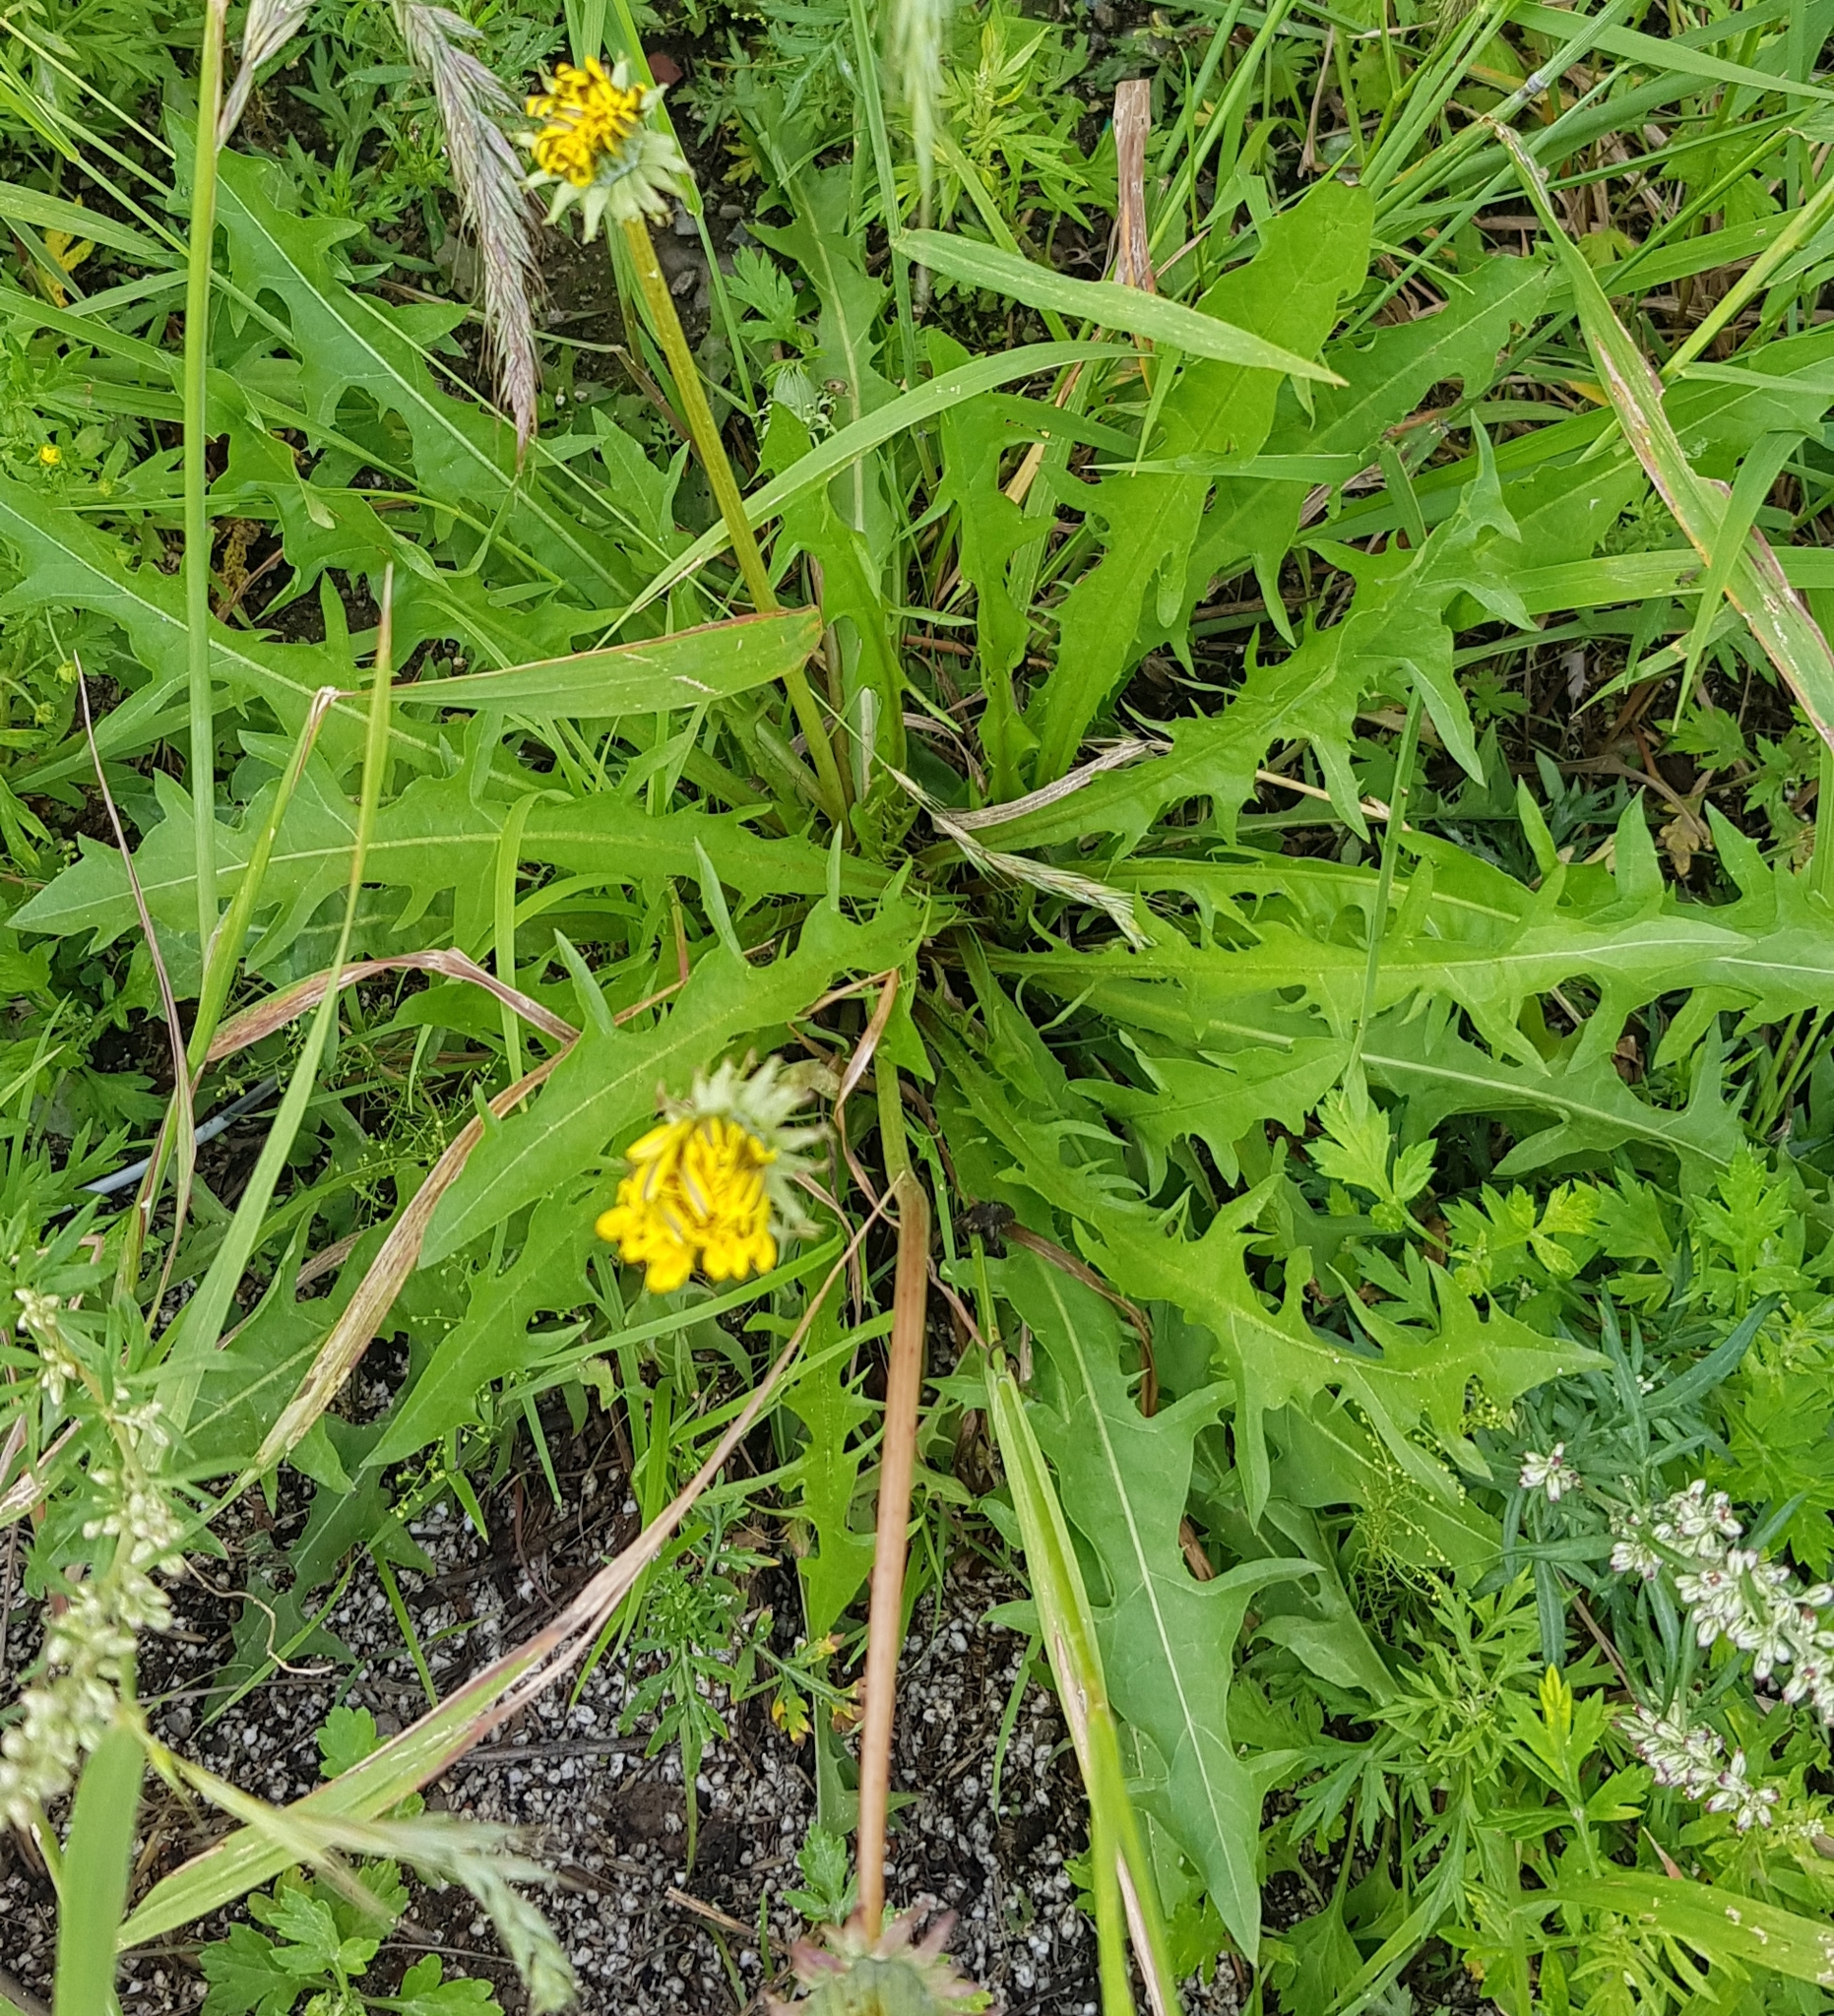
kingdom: Plantae
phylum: Tracheophyta
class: Magnoliopsida
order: Asterales
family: Asteraceae
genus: Taraxacum
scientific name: Taraxacum officinale
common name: Common dandelion
